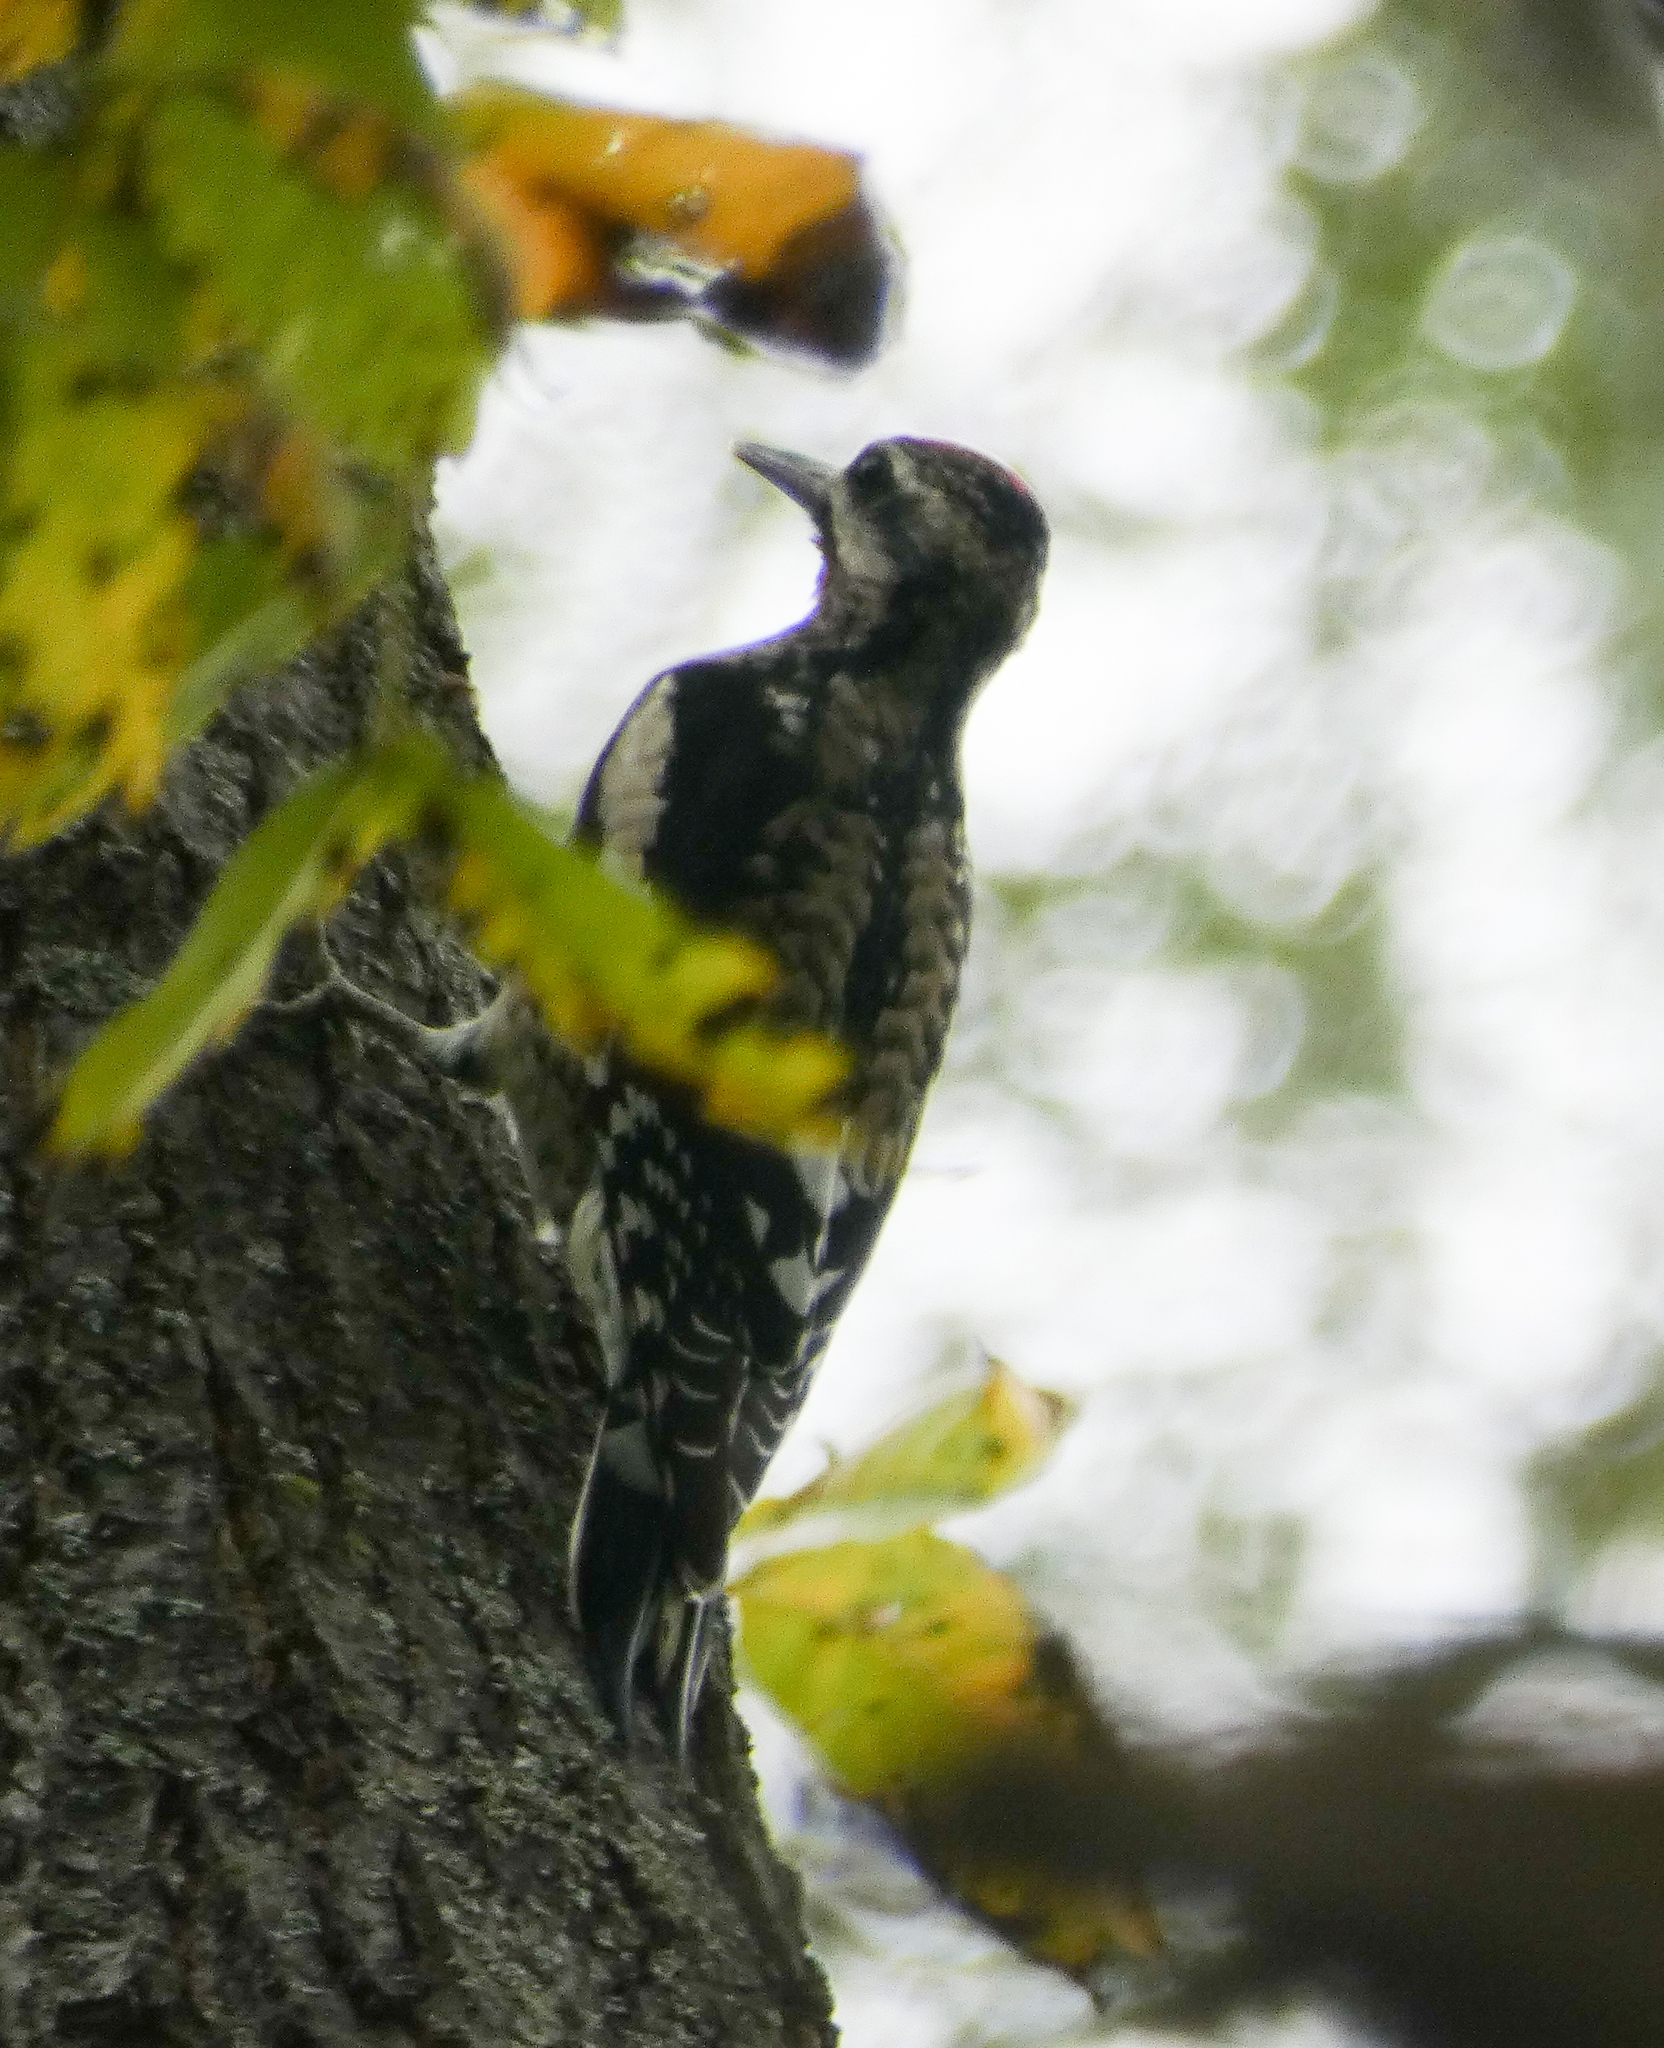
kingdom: Animalia
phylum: Chordata
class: Aves
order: Piciformes
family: Picidae
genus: Sphyrapicus
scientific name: Sphyrapicus varius
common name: Yellow-bellied sapsucker
